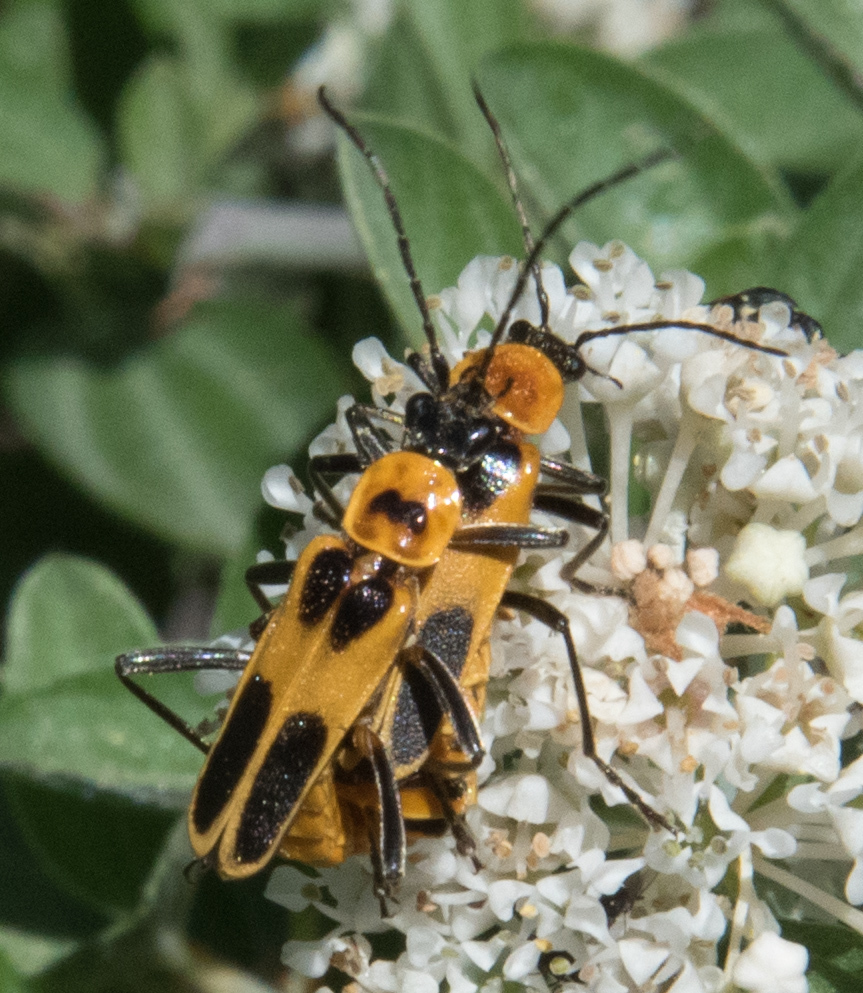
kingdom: Animalia
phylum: Arthropoda
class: Insecta
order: Coleoptera
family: Cantharidae
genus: Chauliognathus
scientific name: Chauliognathus omissus
